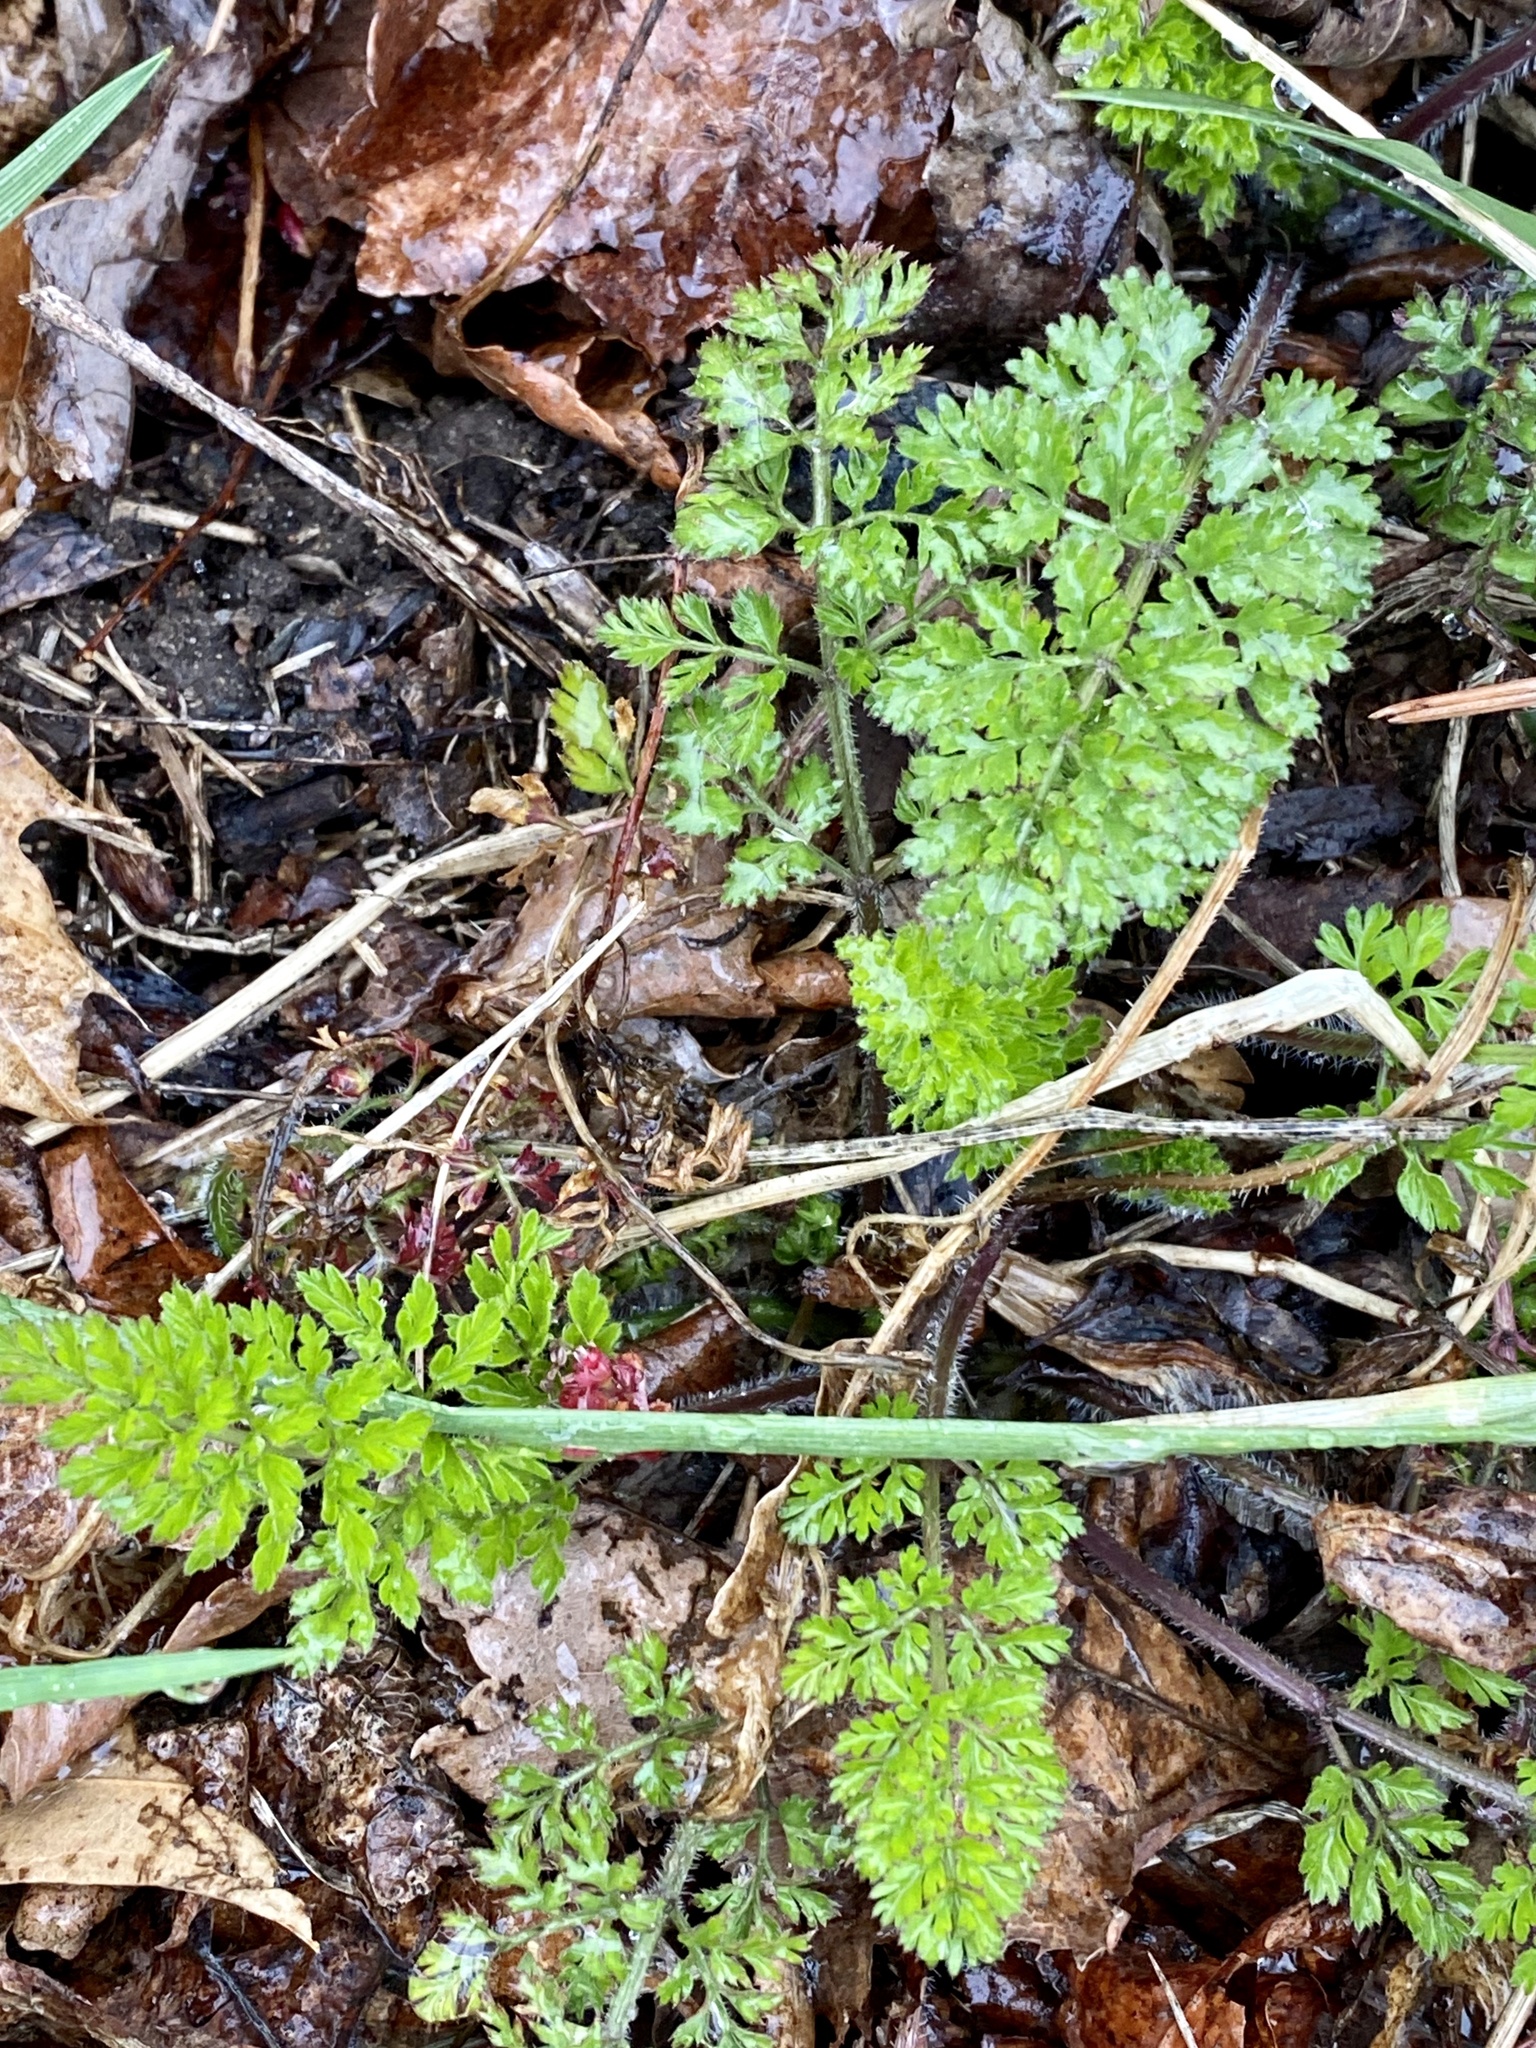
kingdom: Plantae
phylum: Tracheophyta
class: Magnoliopsida
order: Apiales
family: Apiaceae
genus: Daucus
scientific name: Daucus carota
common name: Wild carrot
